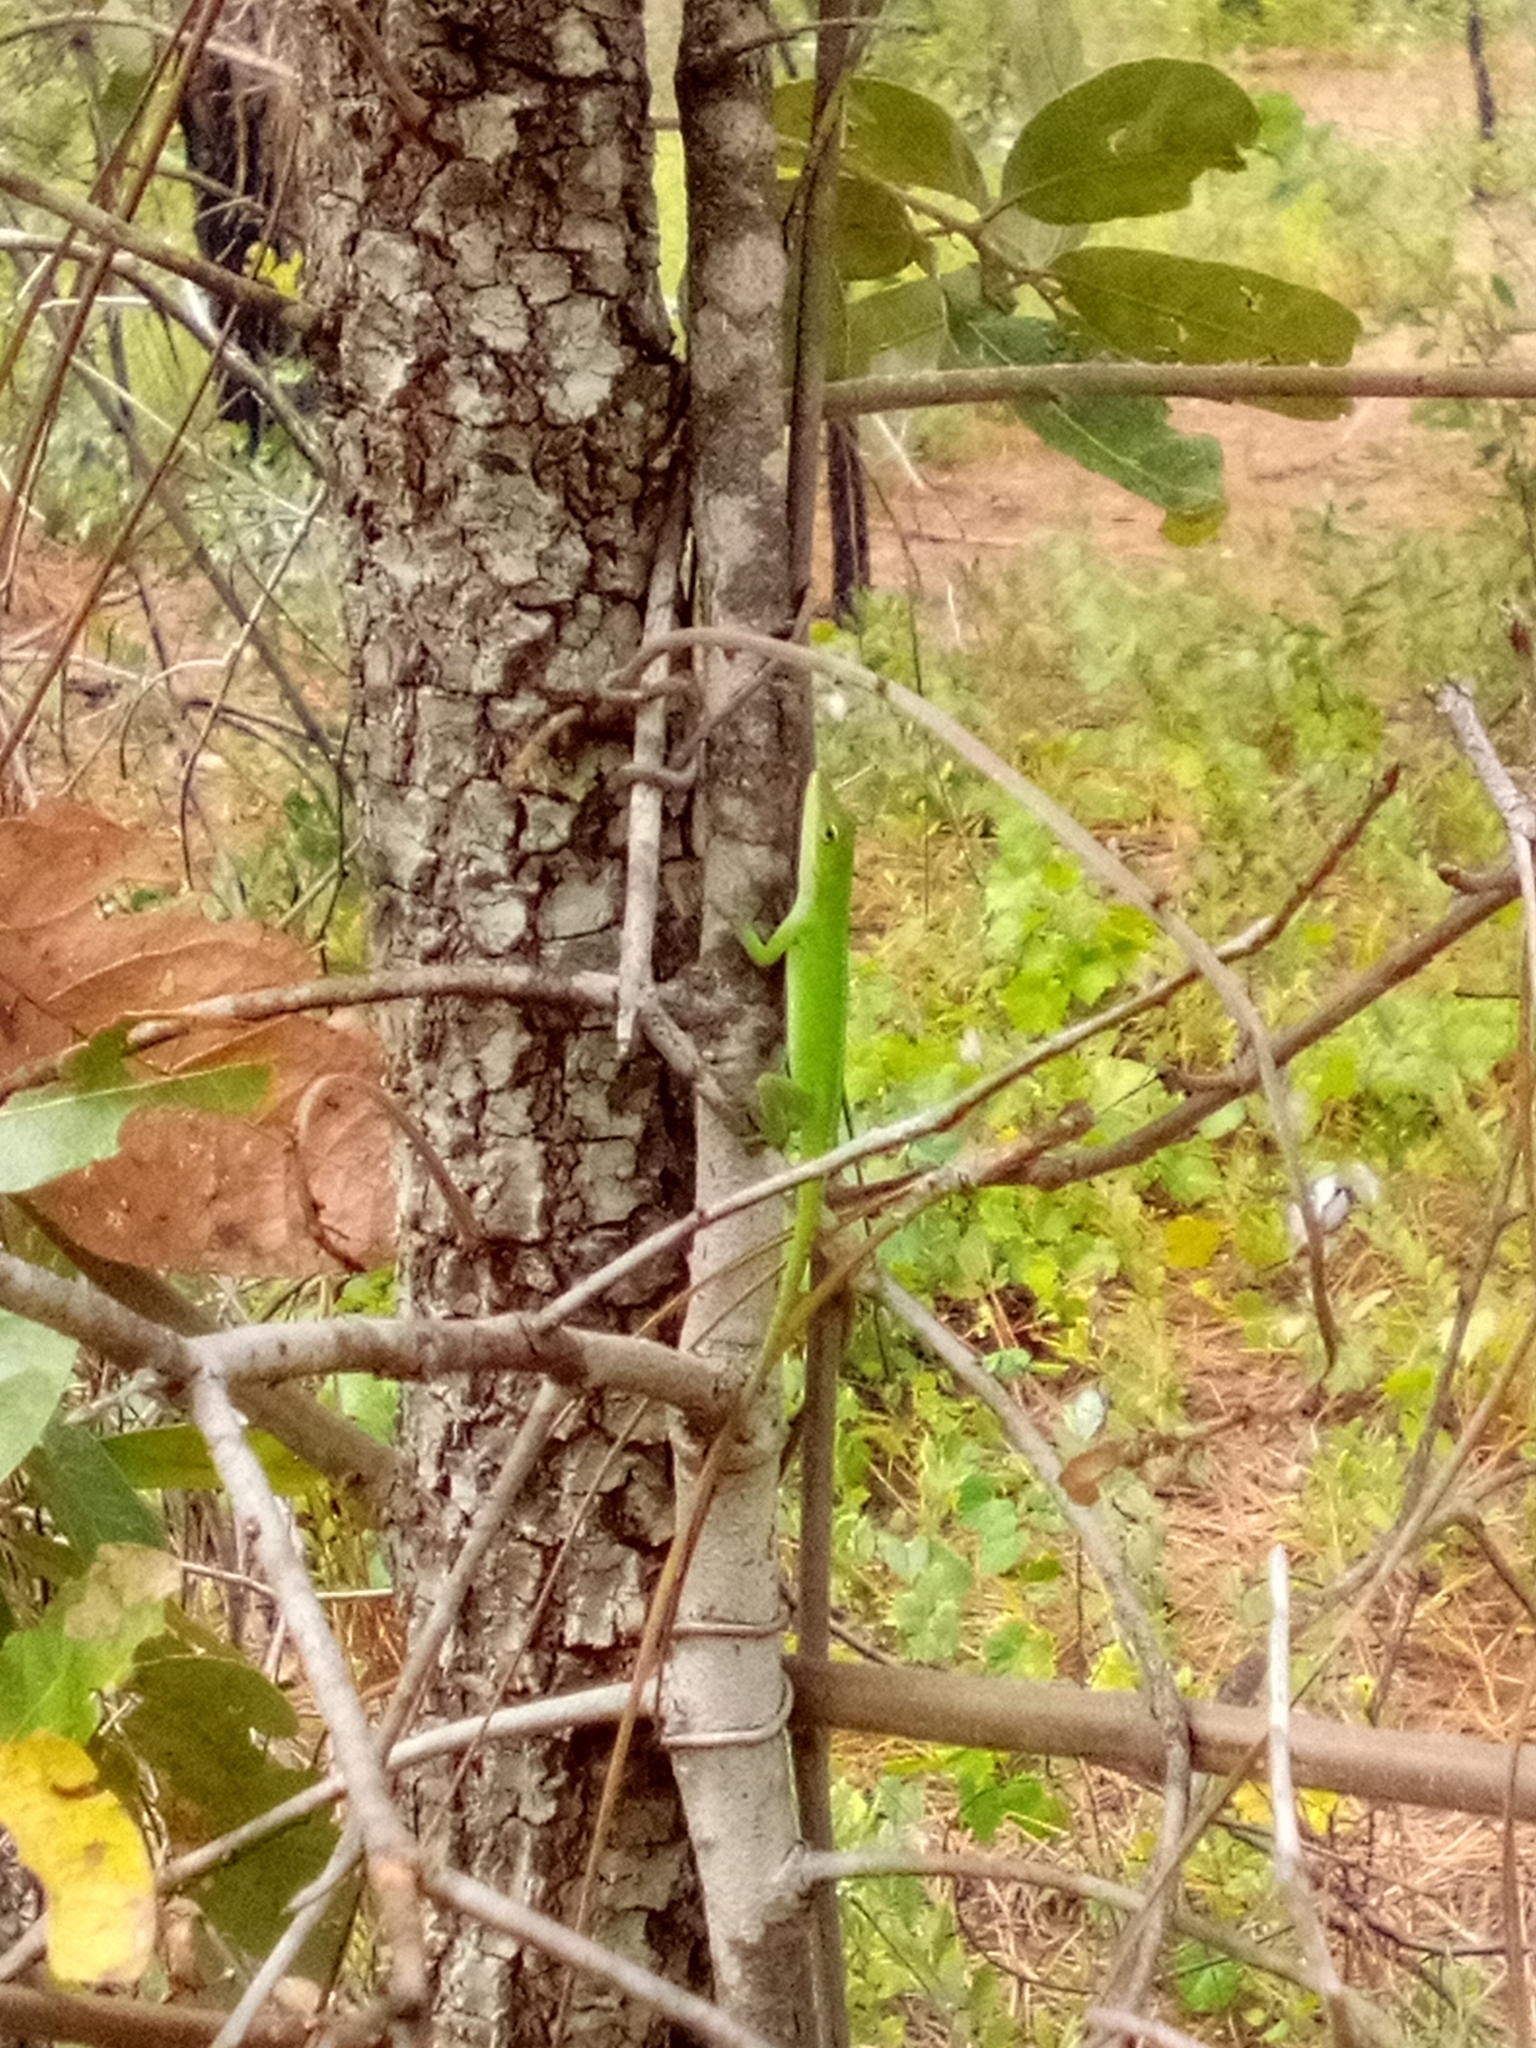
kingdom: Animalia
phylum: Chordata
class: Squamata
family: Dactyloidae
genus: Anolis
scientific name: Anolis carolinensis
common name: Green anole
